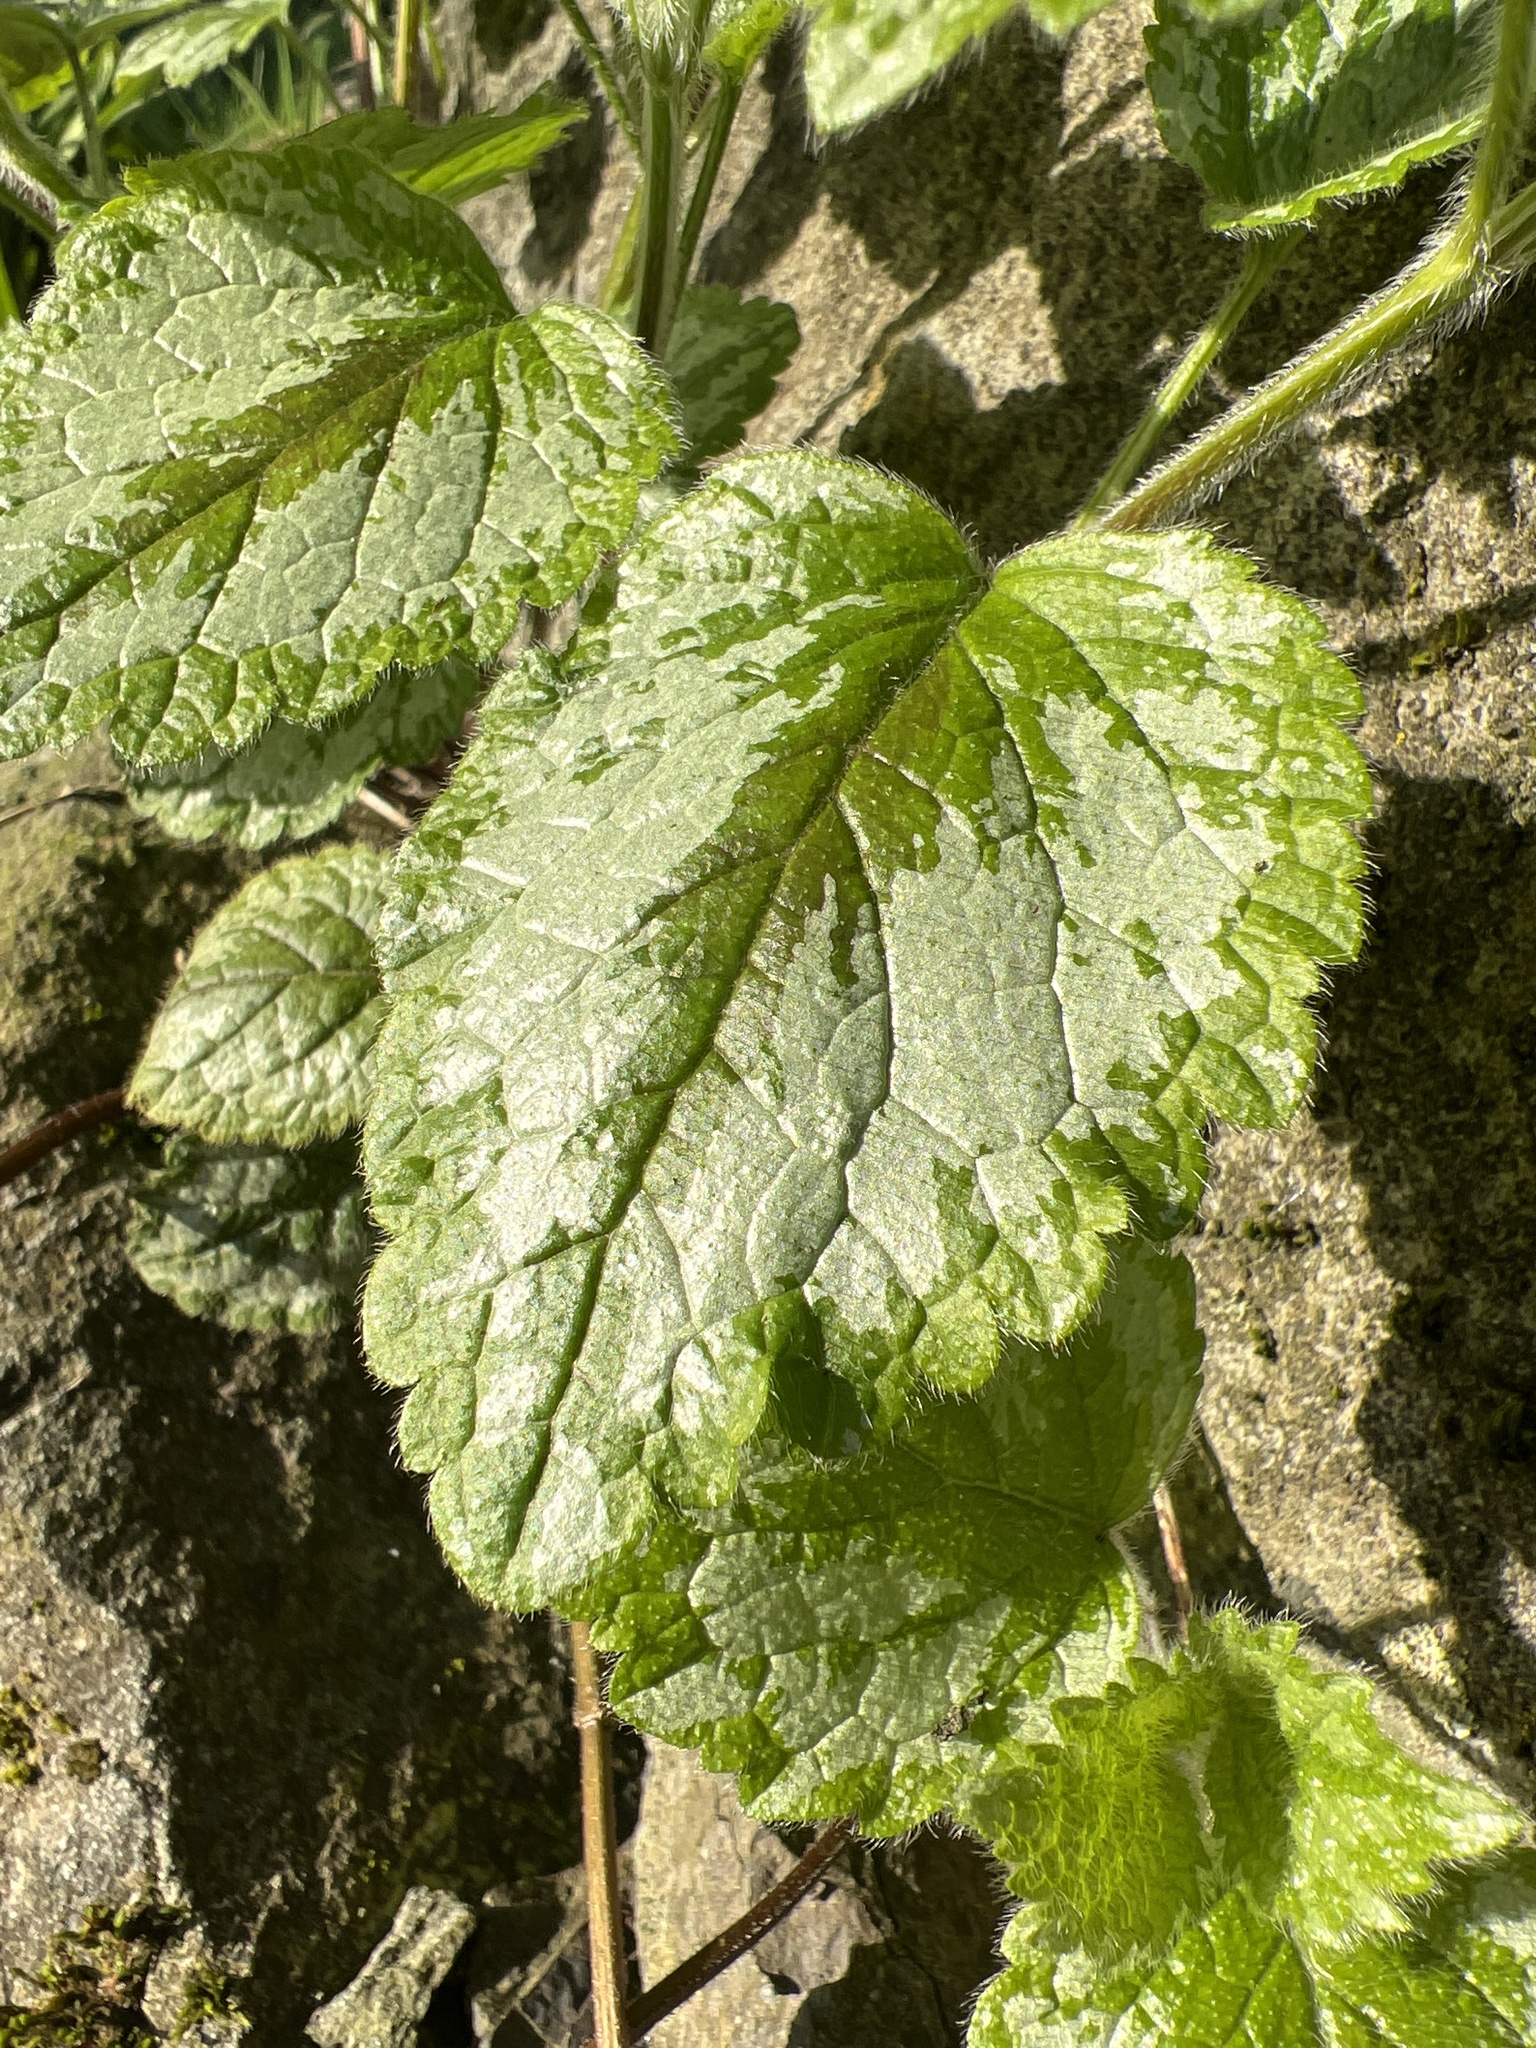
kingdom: Plantae
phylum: Tracheophyta
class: Magnoliopsida
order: Lamiales
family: Lamiaceae
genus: Lamium
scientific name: Lamium galeobdolon
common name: Yellow archangel
